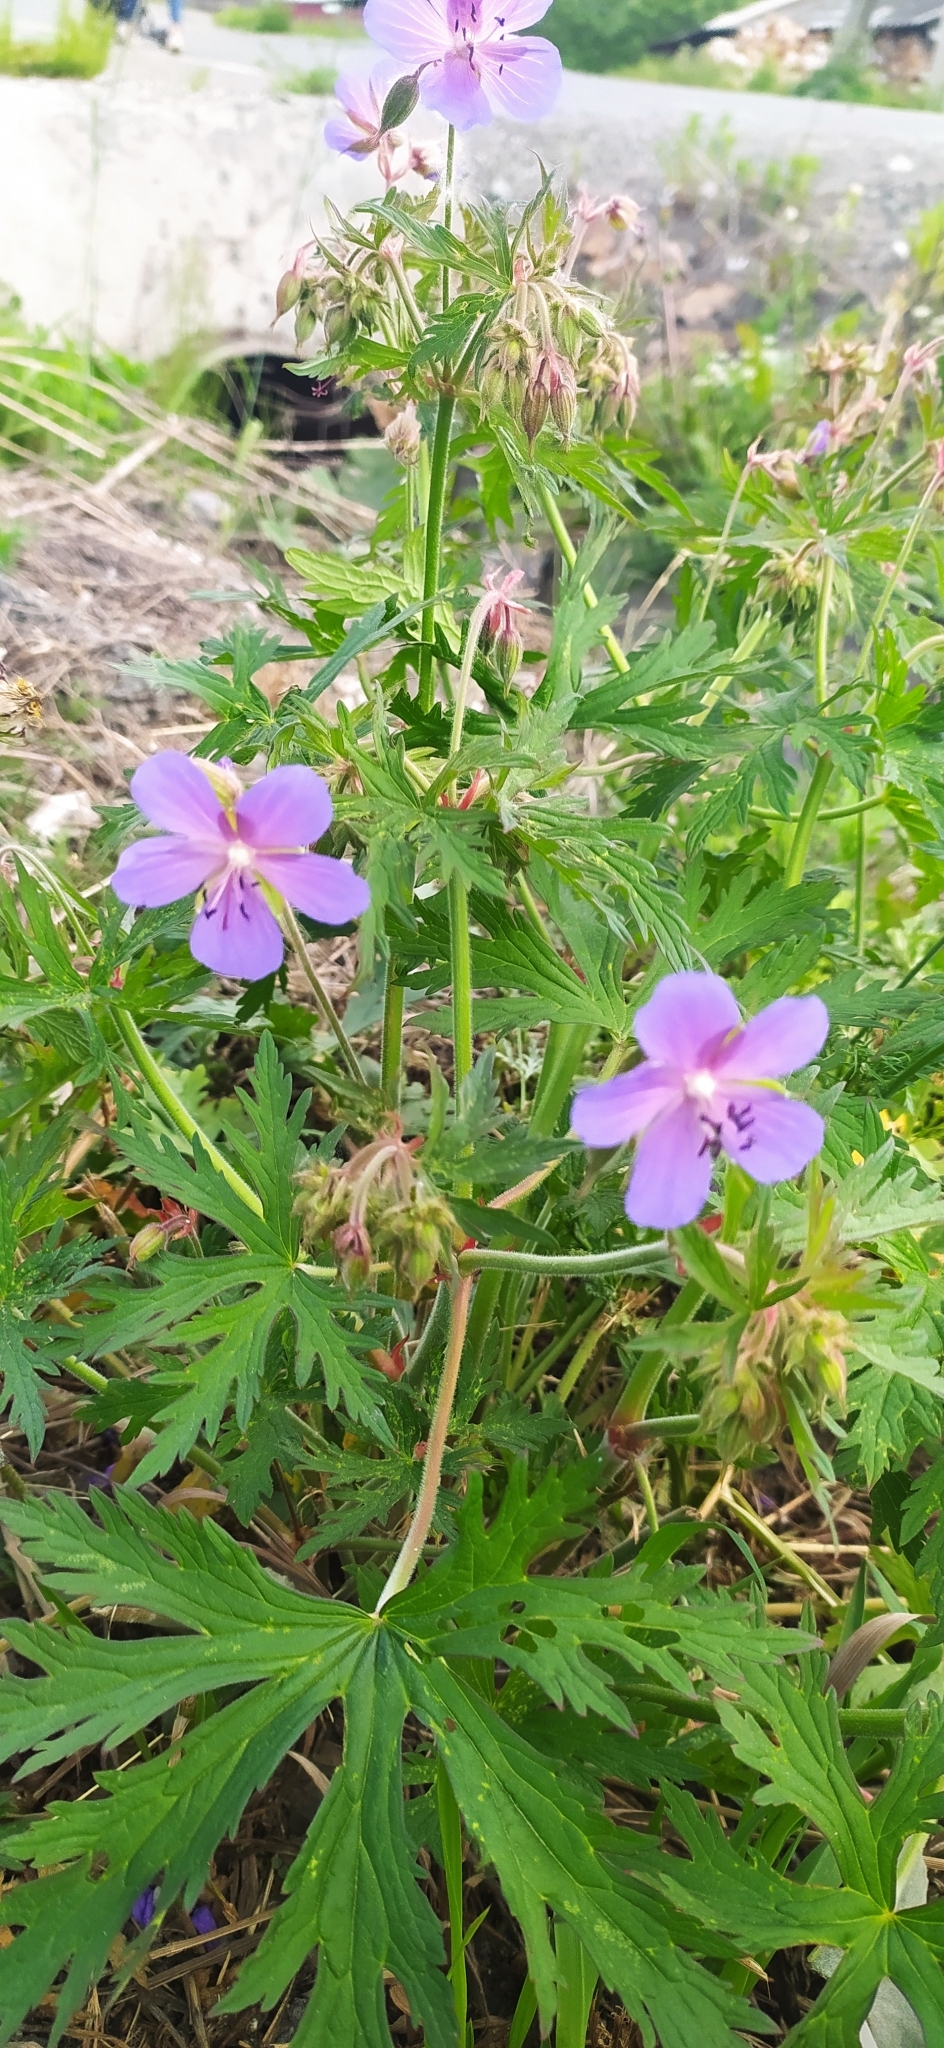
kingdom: Plantae
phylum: Tracheophyta
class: Magnoliopsida
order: Geraniales
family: Geraniaceae
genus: Geranium
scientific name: Geranium pratense
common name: Meadow crane's-bill
